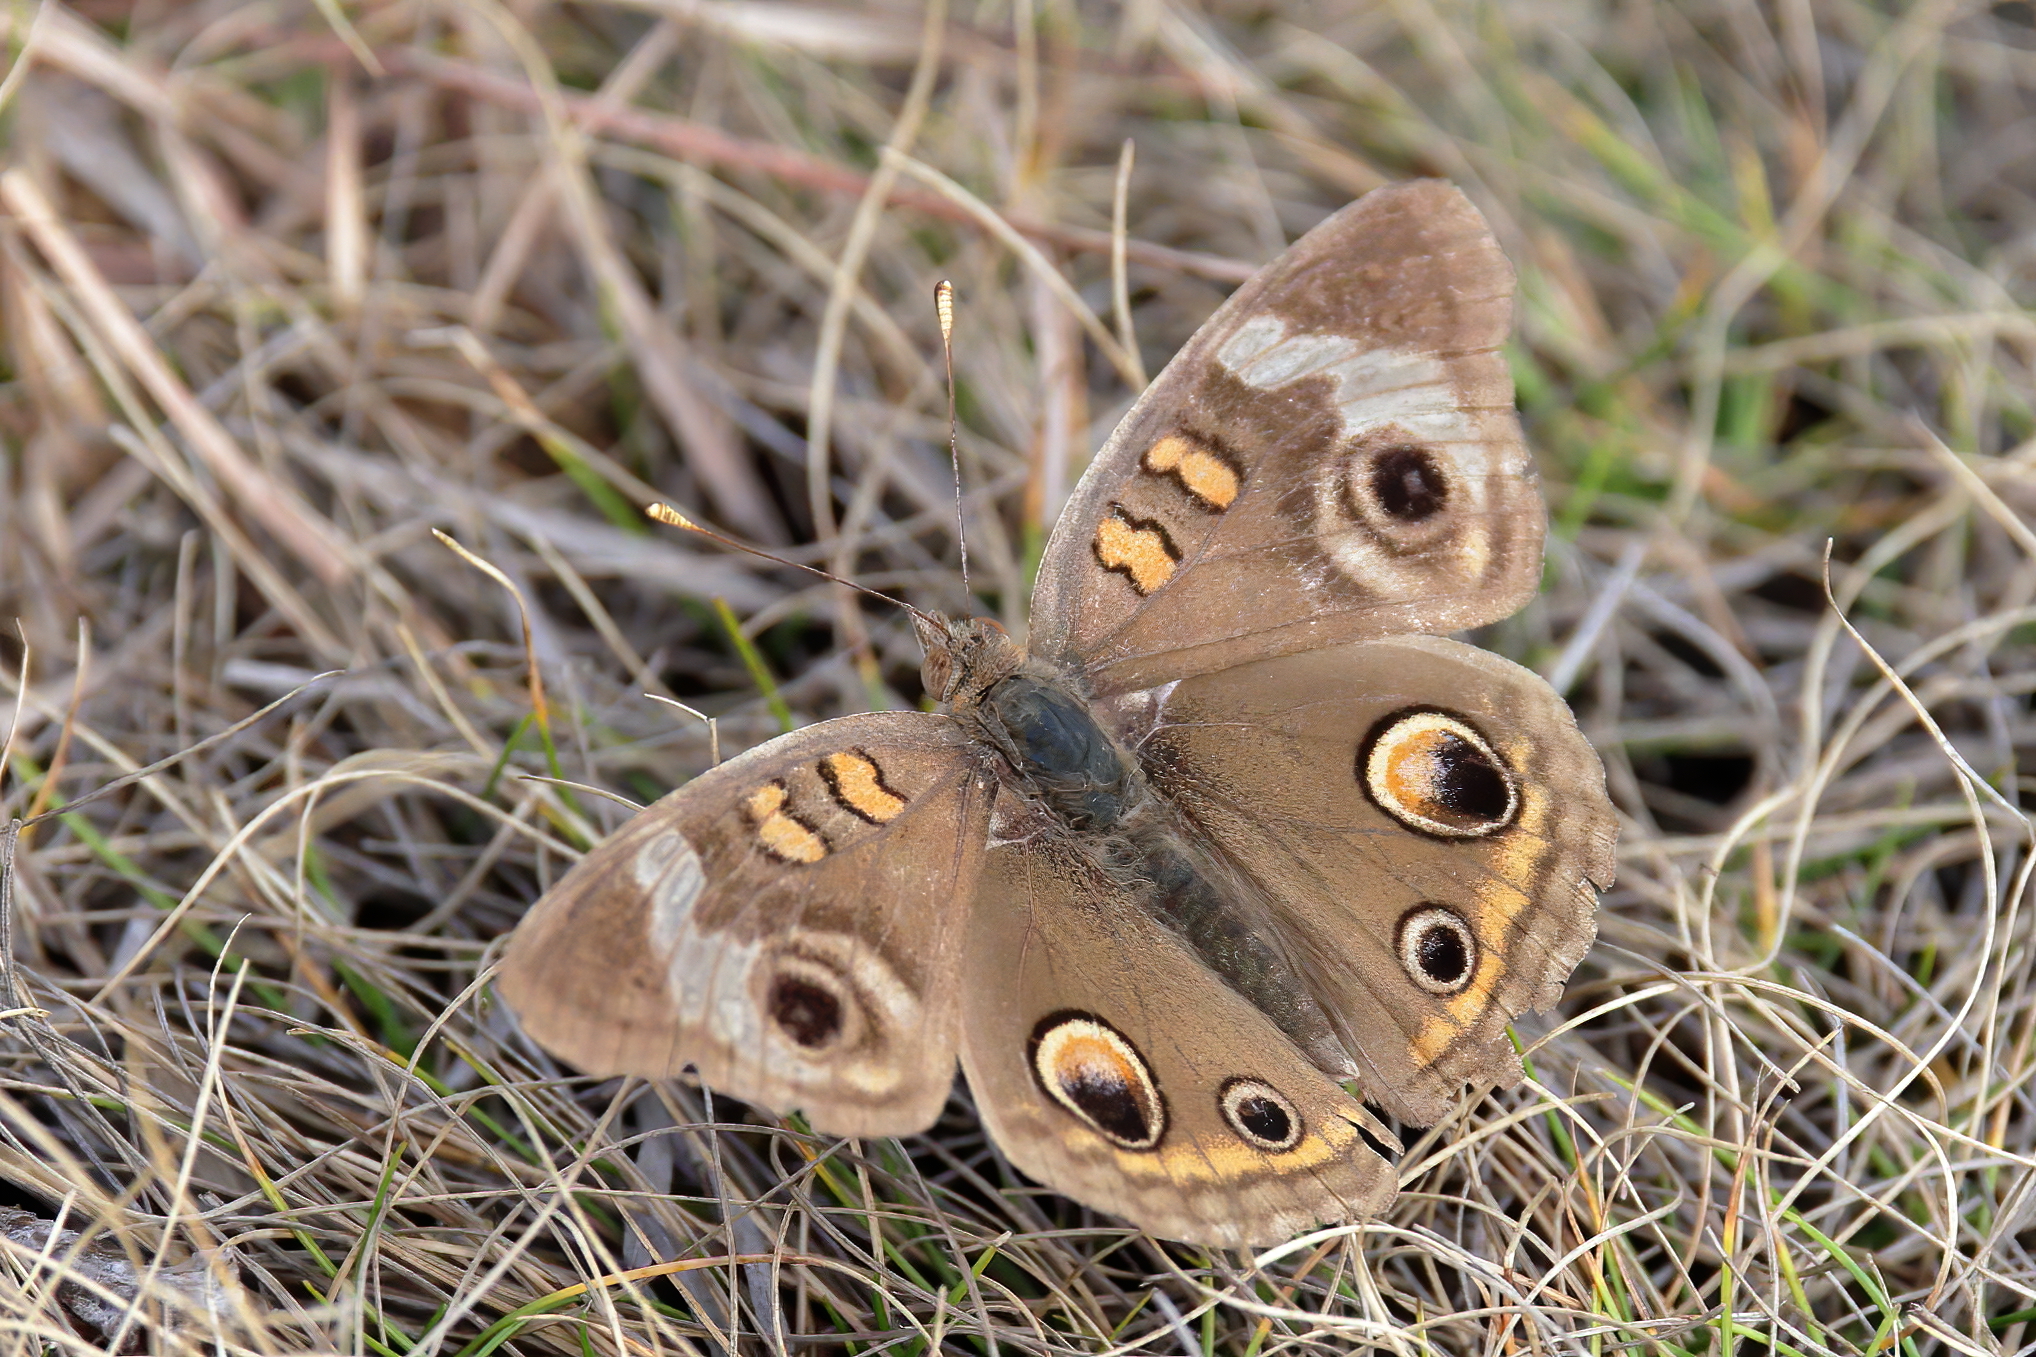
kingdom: Animalia
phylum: Arthropoda
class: Insecta
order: Lepidoptera
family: Nymphalidae
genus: Junonia
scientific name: Junonia coenia
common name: Common buckeye
